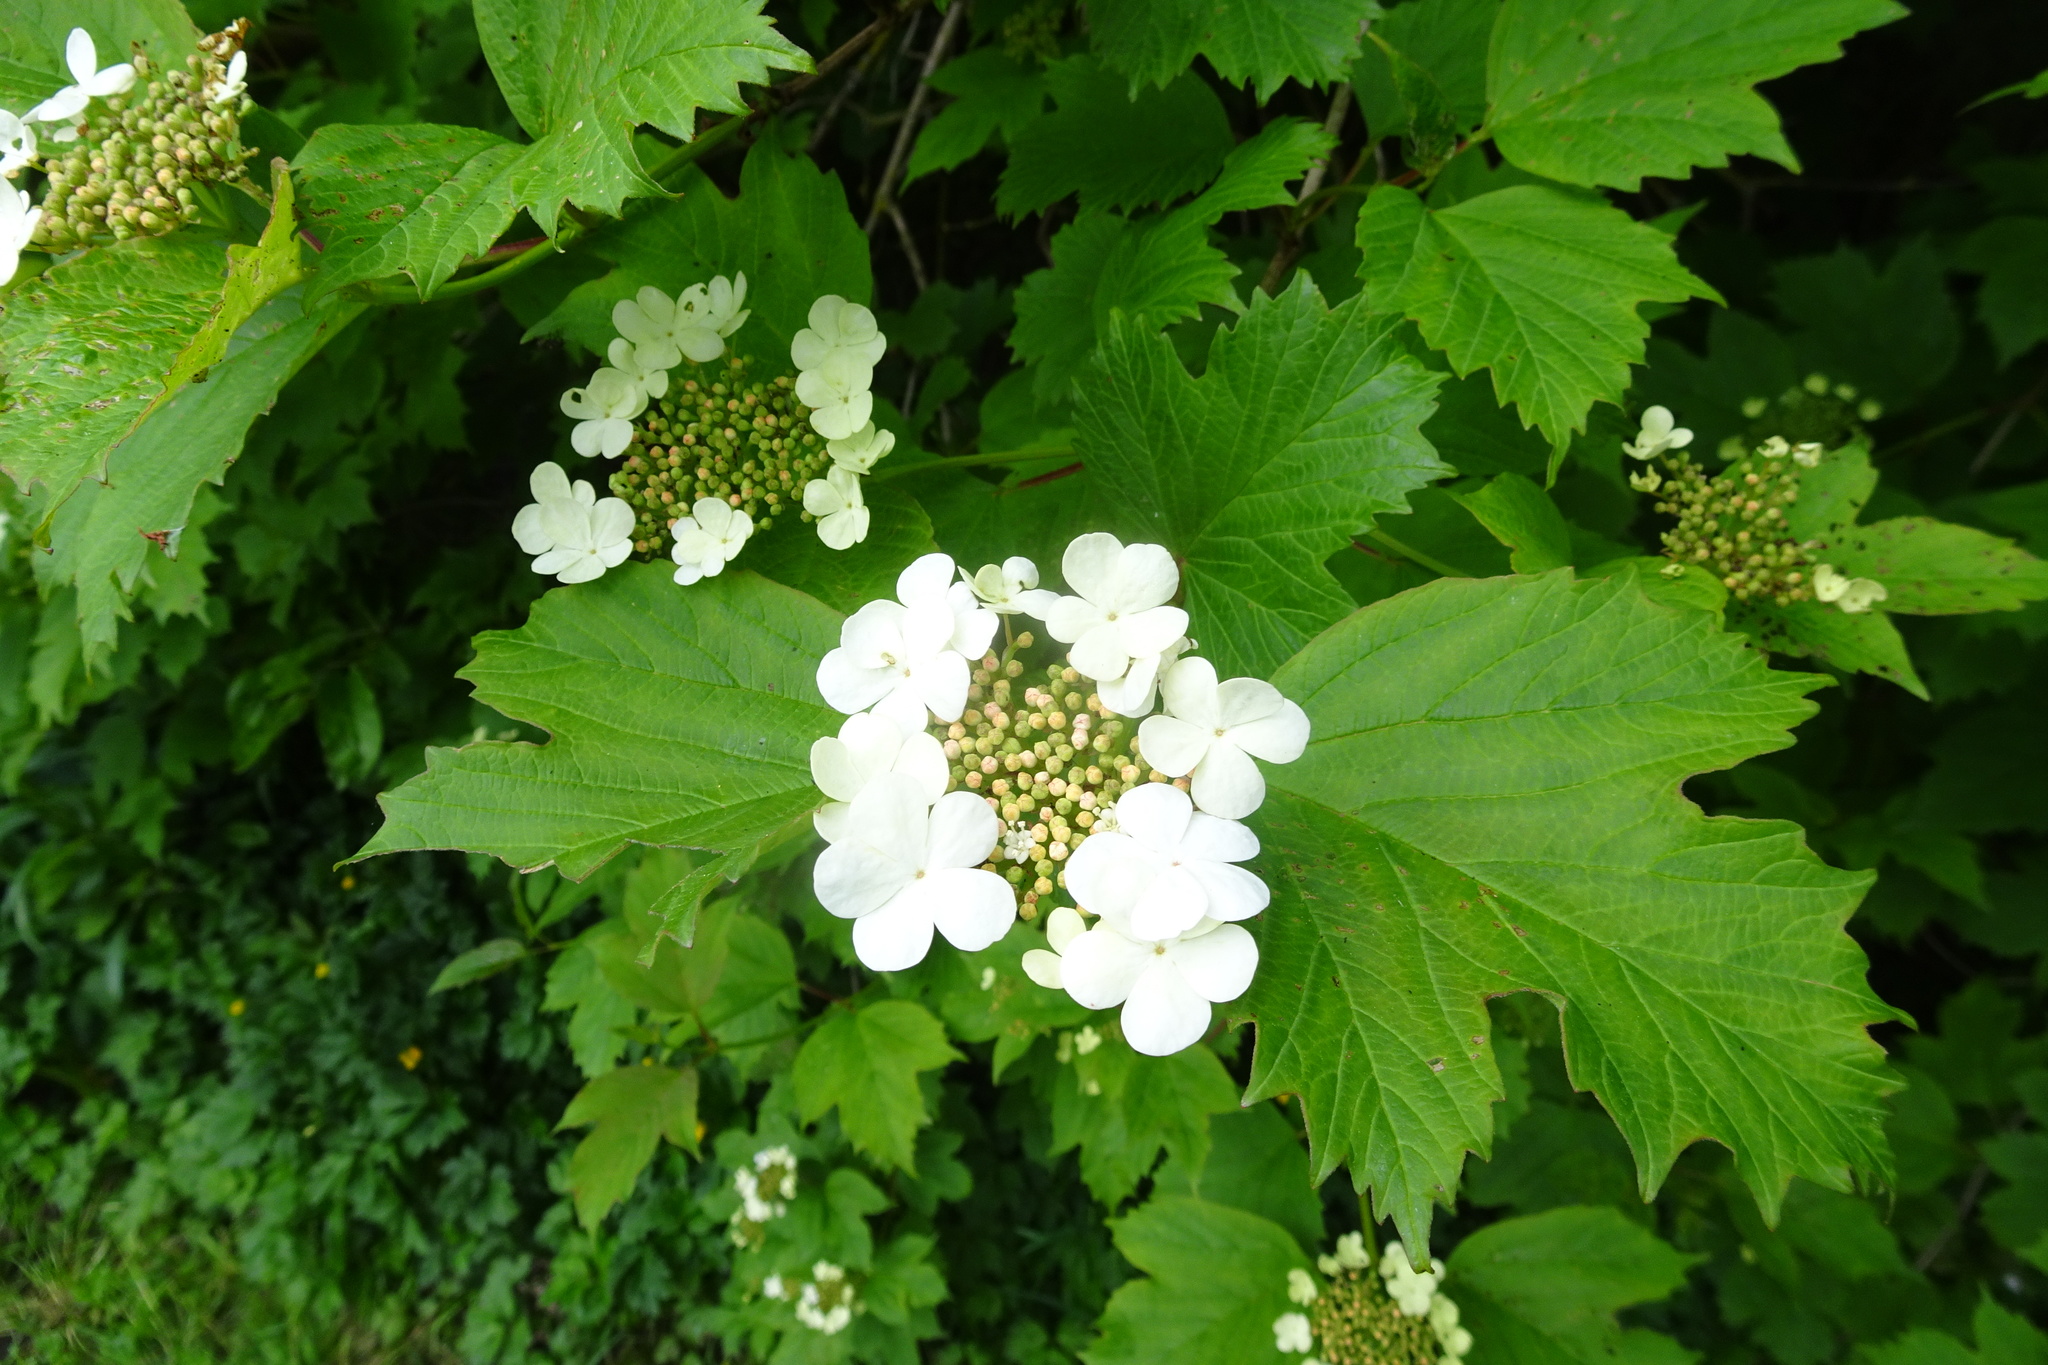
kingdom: Plantae
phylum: Tracheophyta
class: Magnoliopsida
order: Dipsacales
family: Viburnaceae
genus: Viburnum
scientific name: Viburnum opulus
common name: Guelder-rose
